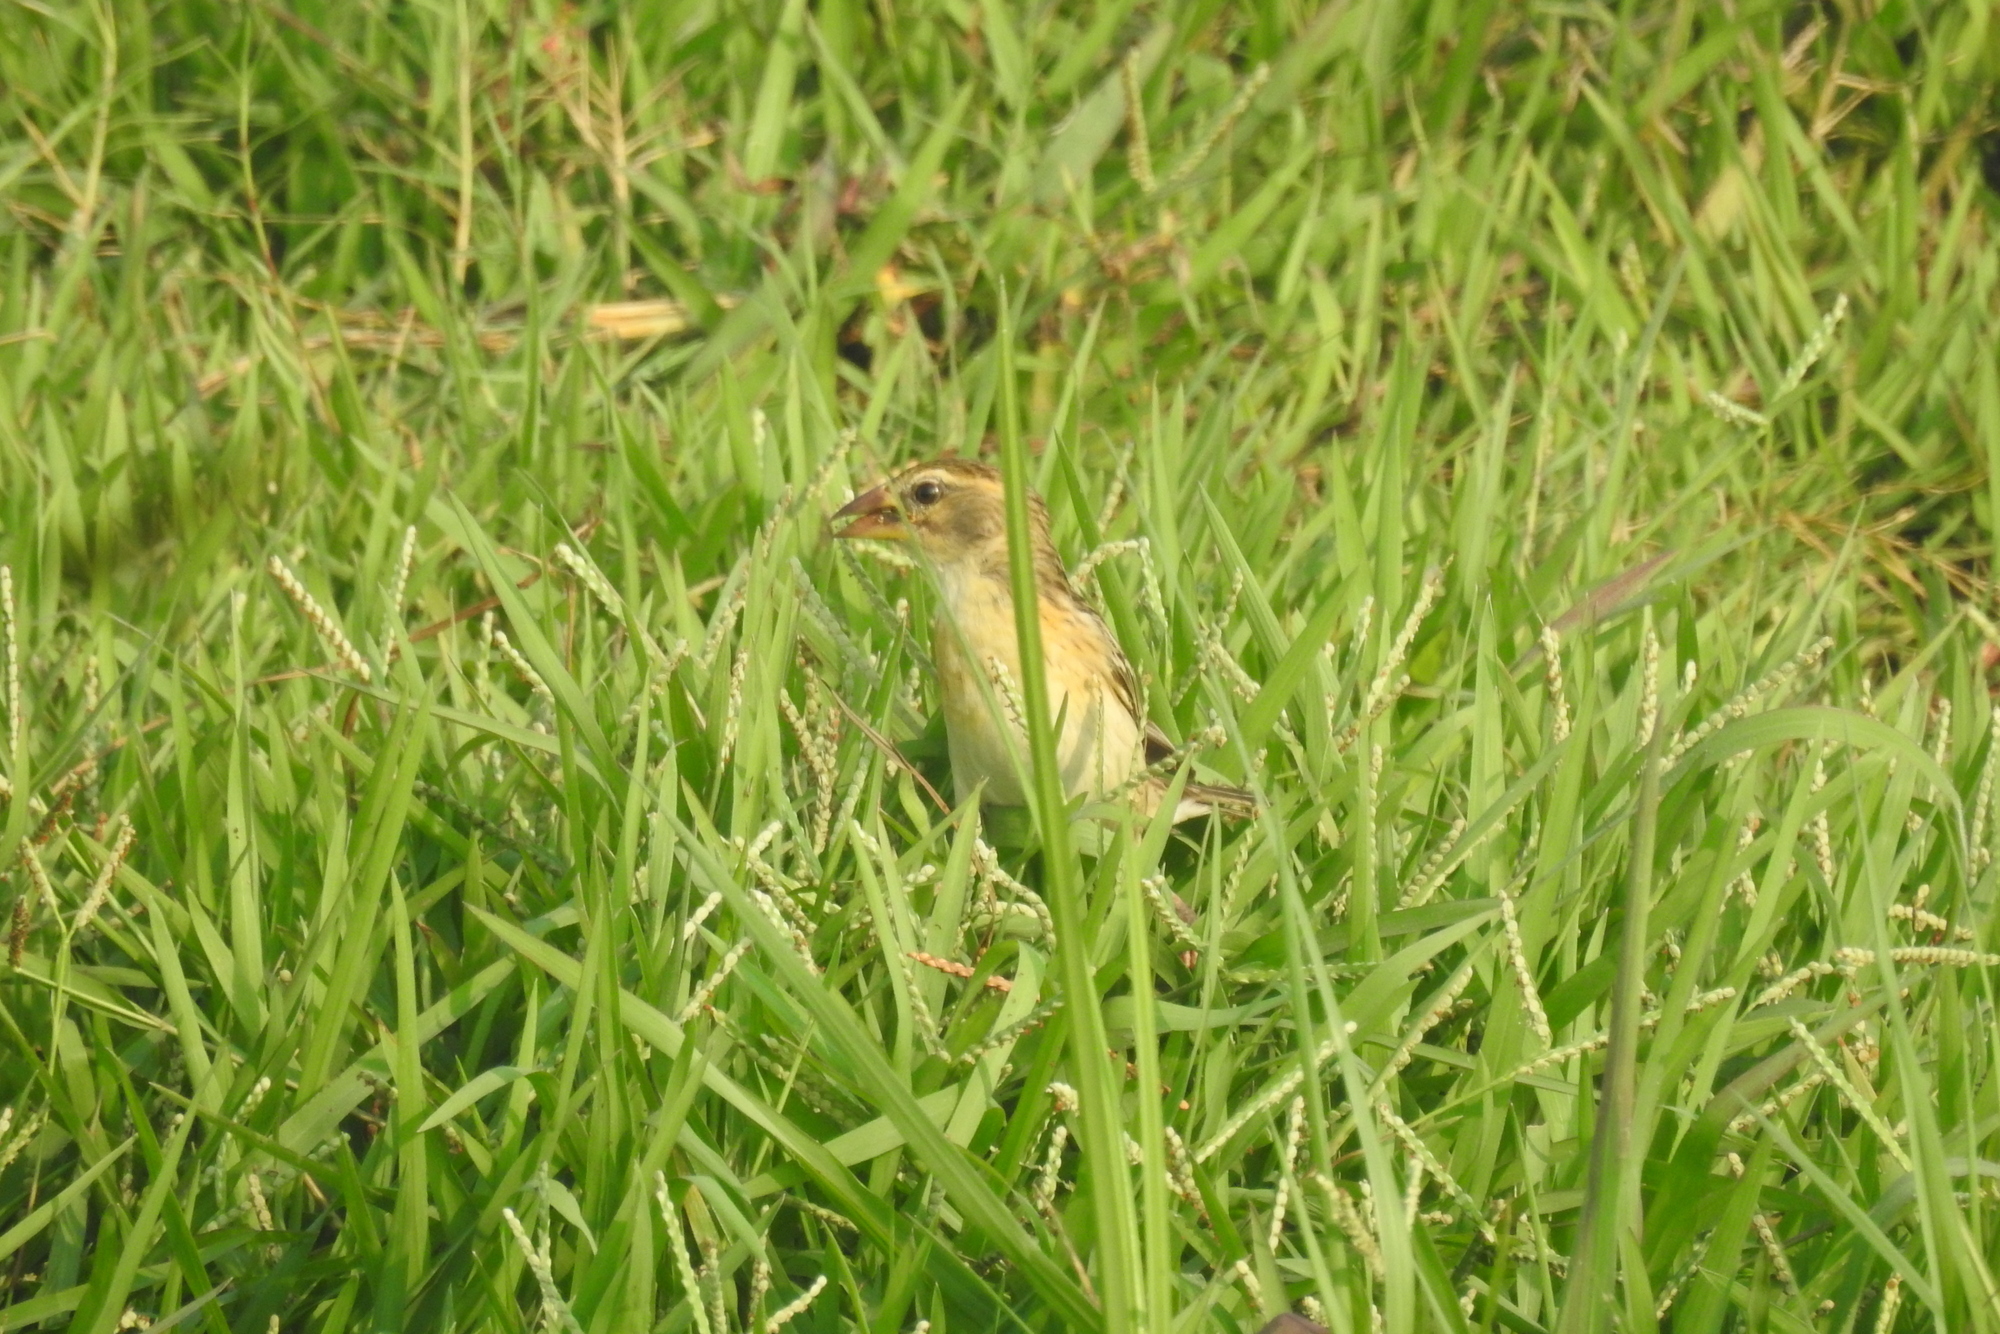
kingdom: Animalia
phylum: Chordata
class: Aves
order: Passeriformes
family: Ploceidae
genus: Ploceus
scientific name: Ploceus philippinus
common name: Baya weaver
